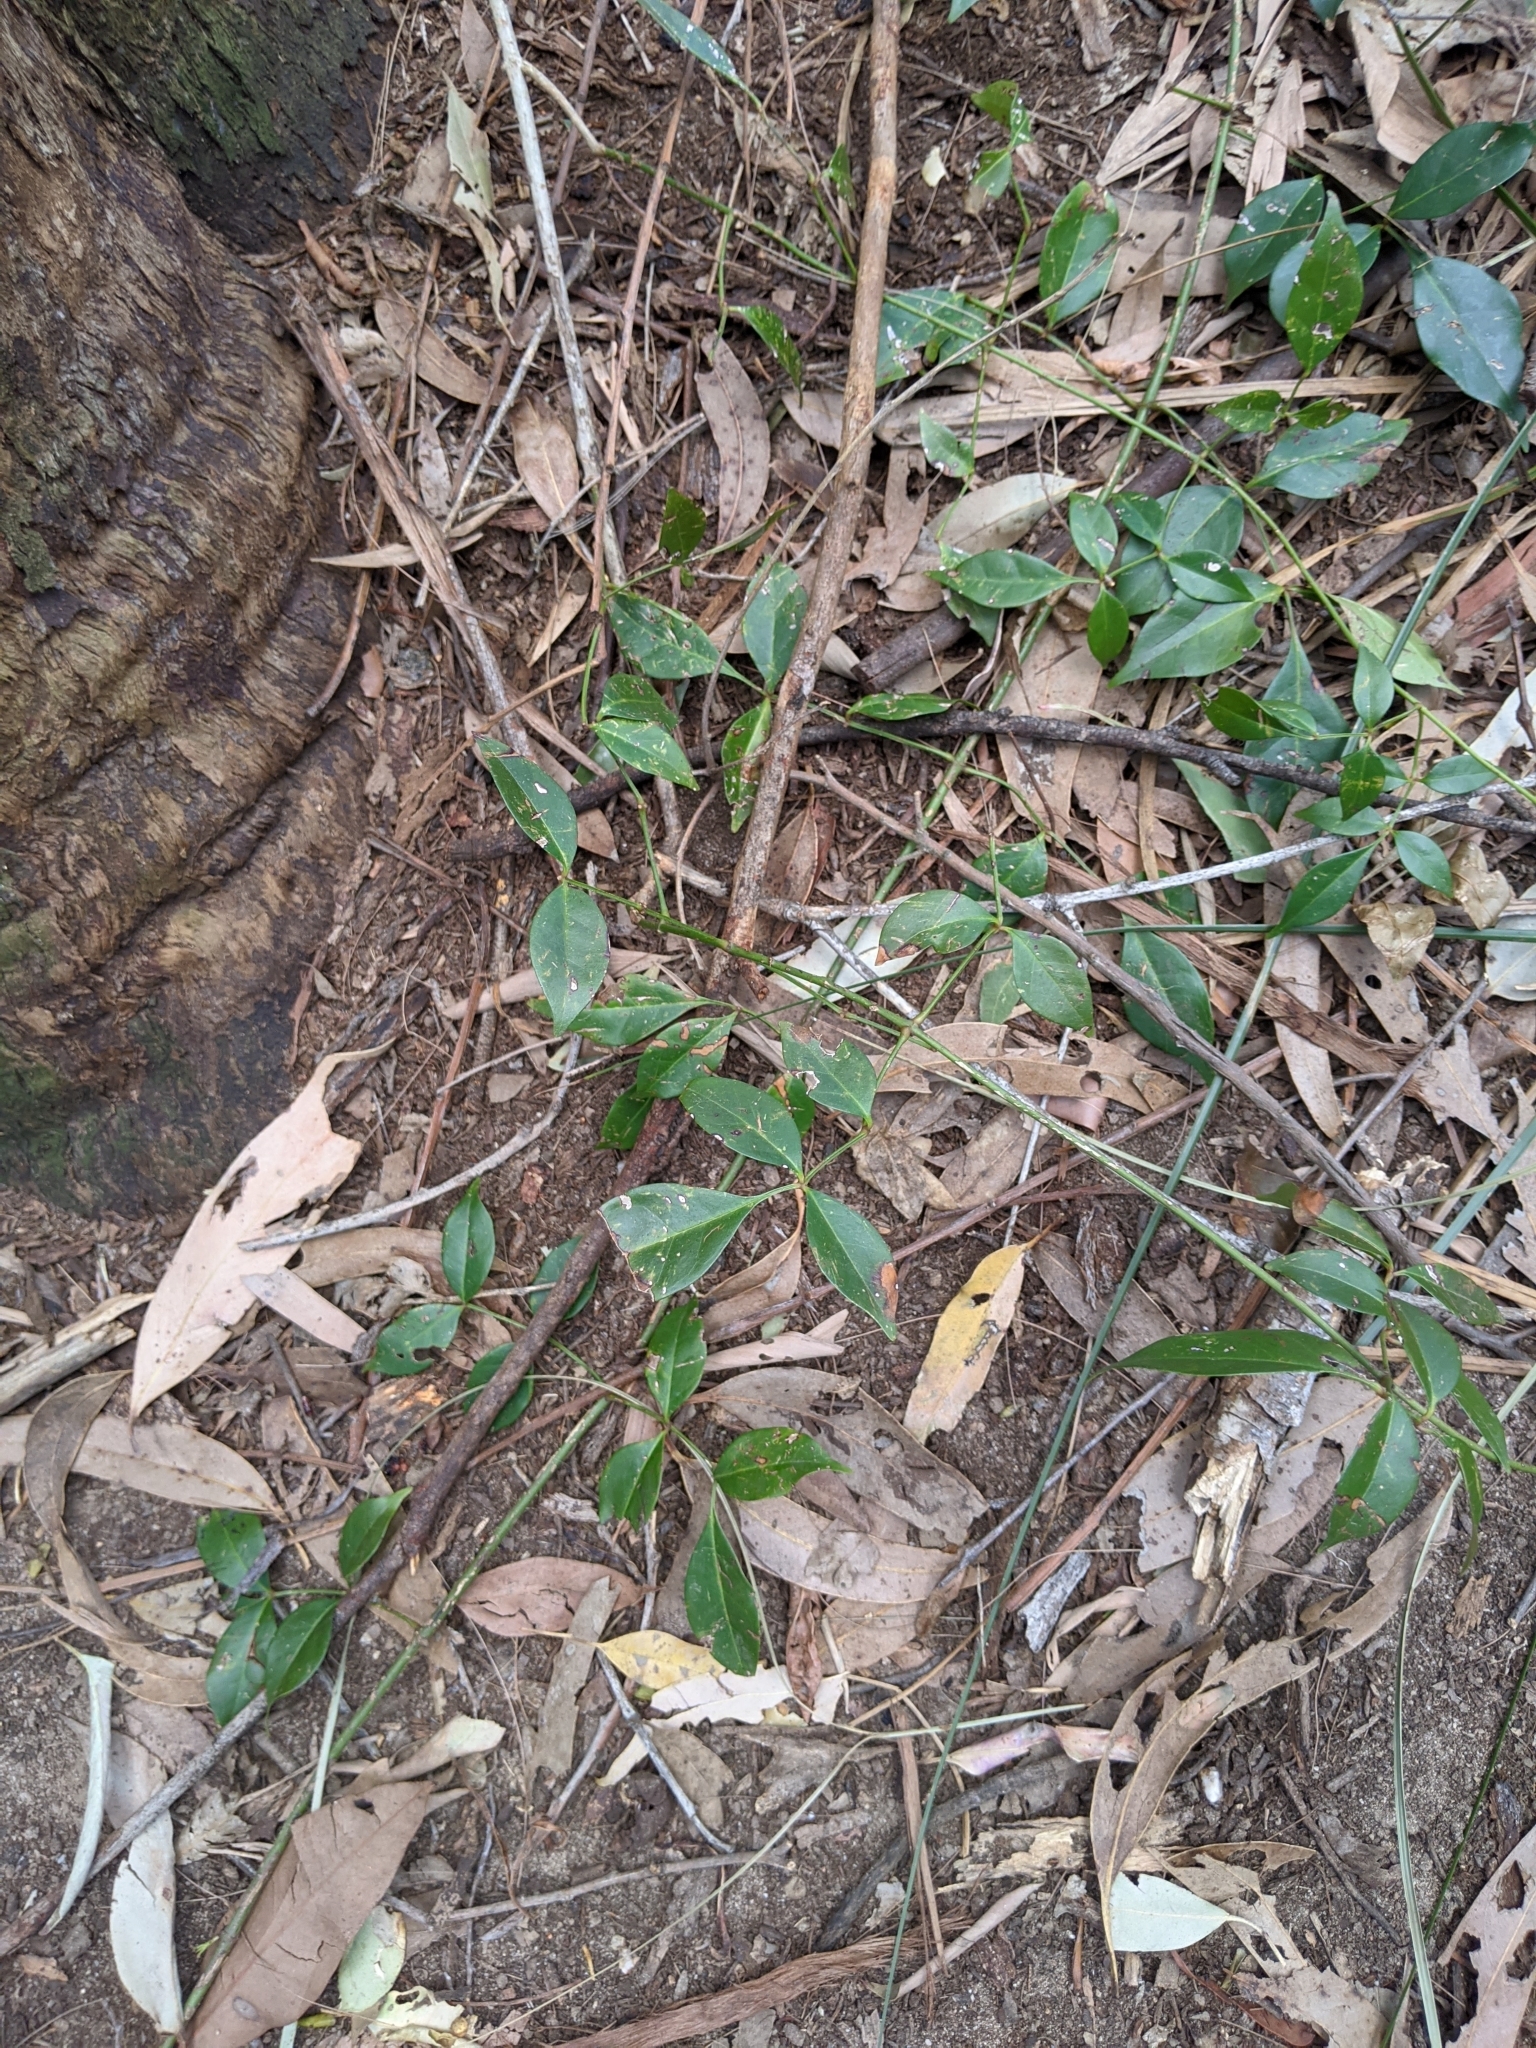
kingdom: Plantae
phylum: Tracheophyta
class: Magnoliopsida
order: Lamiales
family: Bignoniaceae
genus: Pandorea
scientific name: Pandorea jasminoides
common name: Bowerplant
